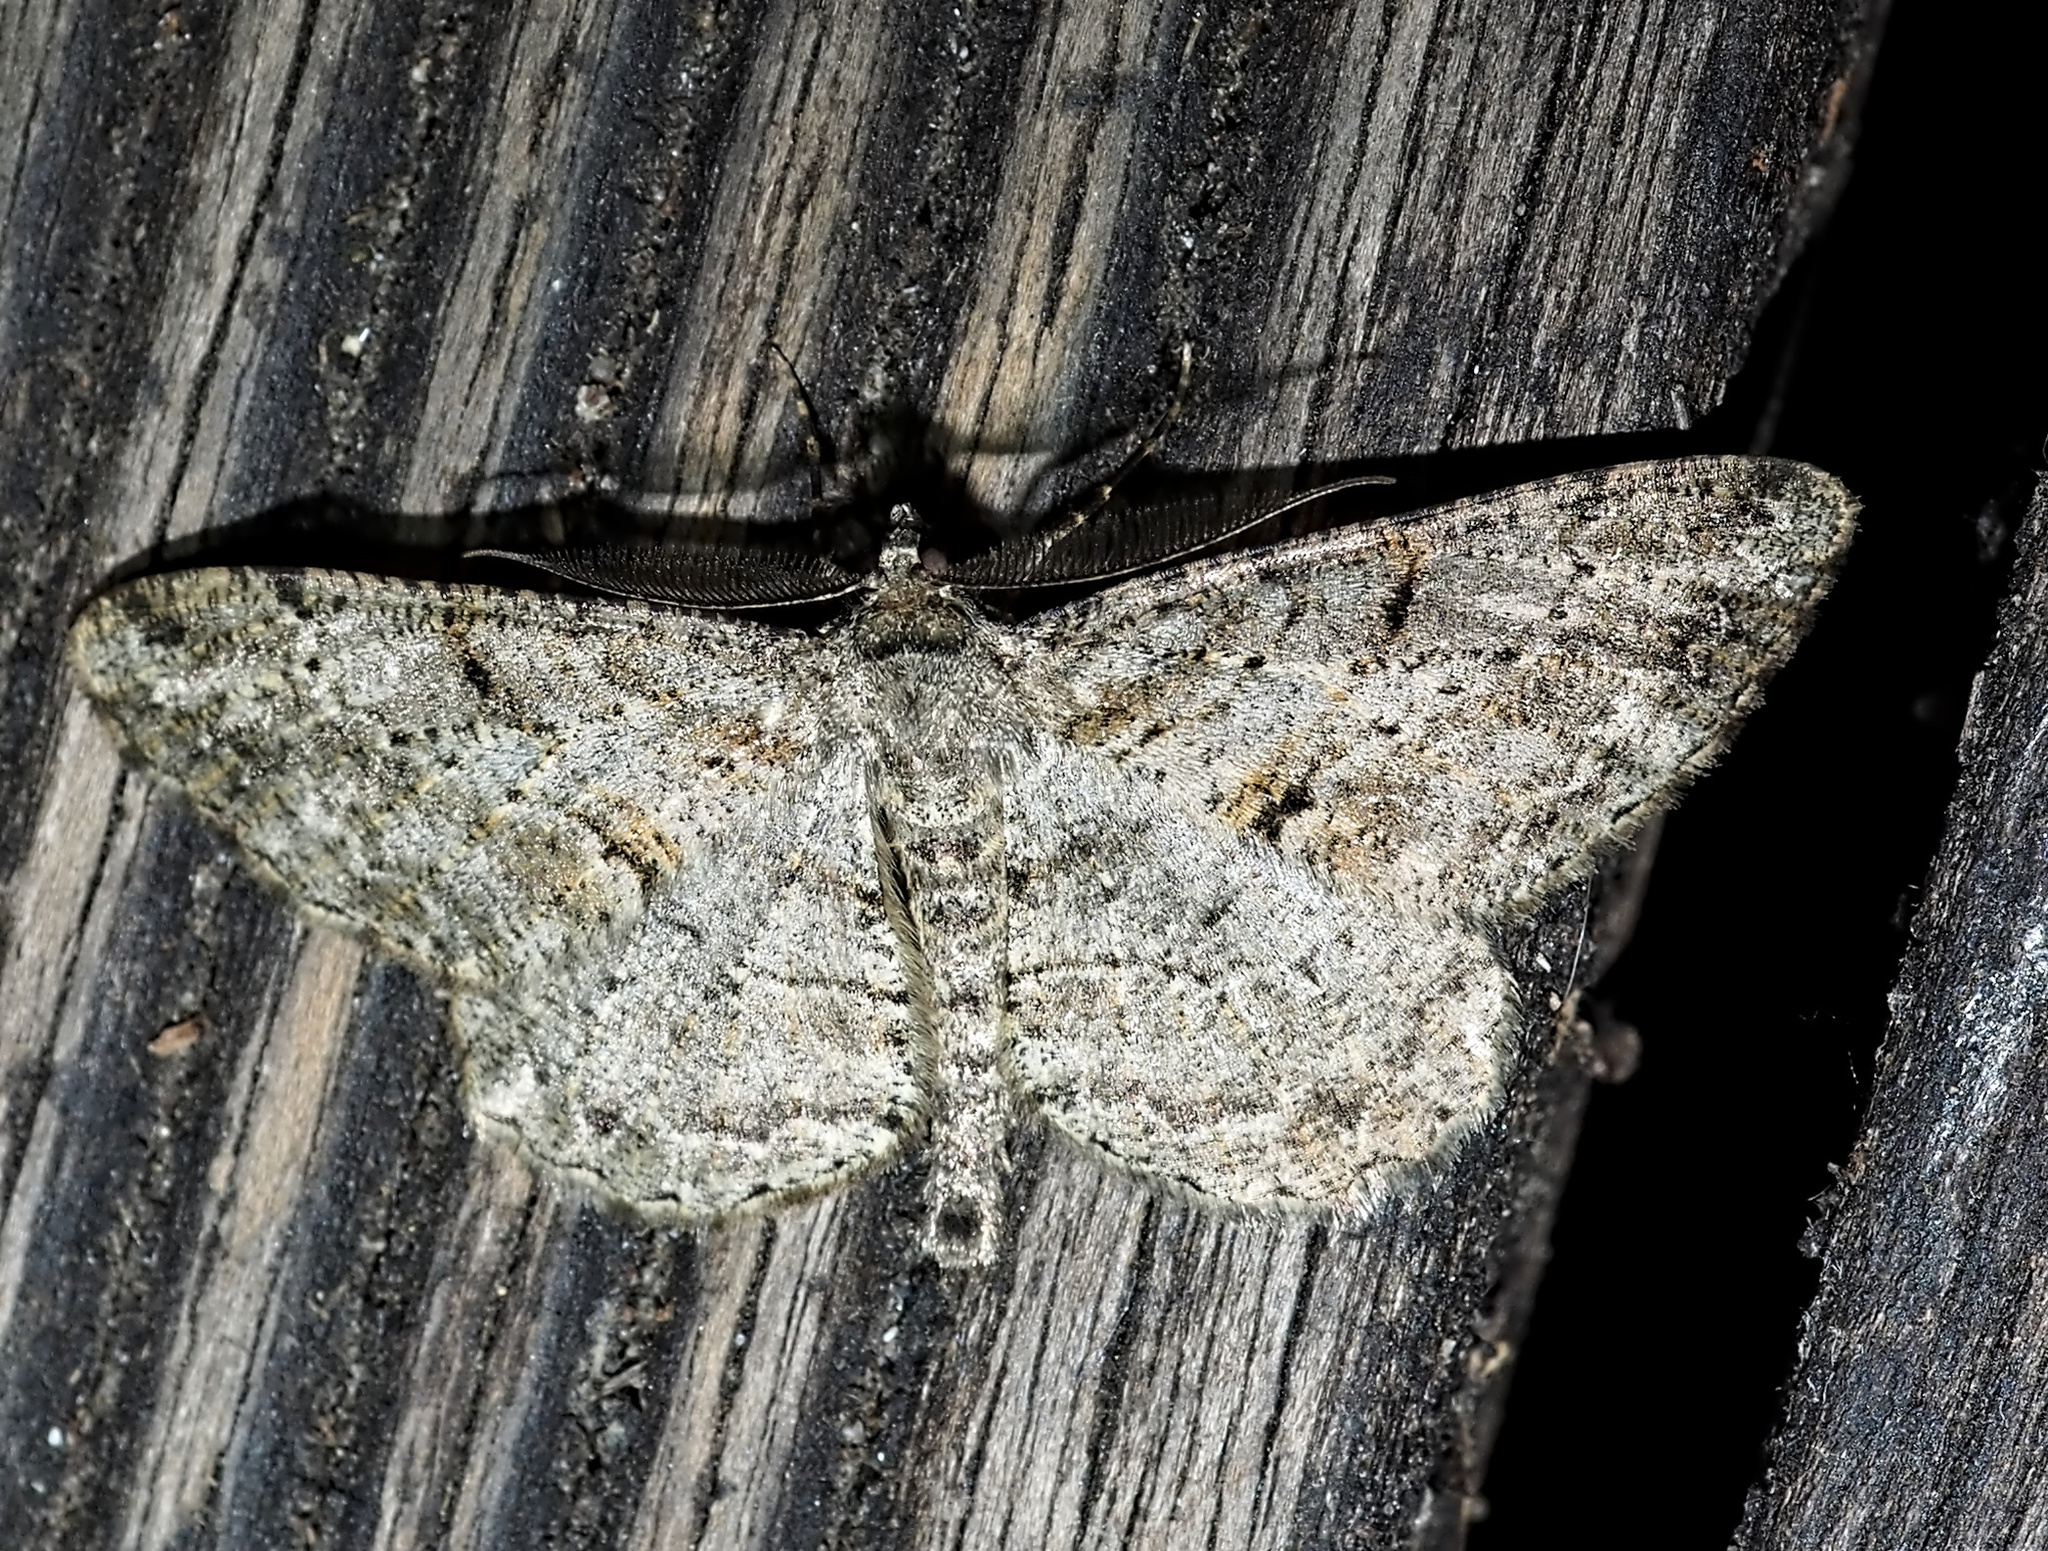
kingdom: Animalia
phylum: Arthropoda
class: Insecta
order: Lepidoptera
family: Geometridae
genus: Peribatodes
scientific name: Peribatodes rhomboidaria
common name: Willow beauty
